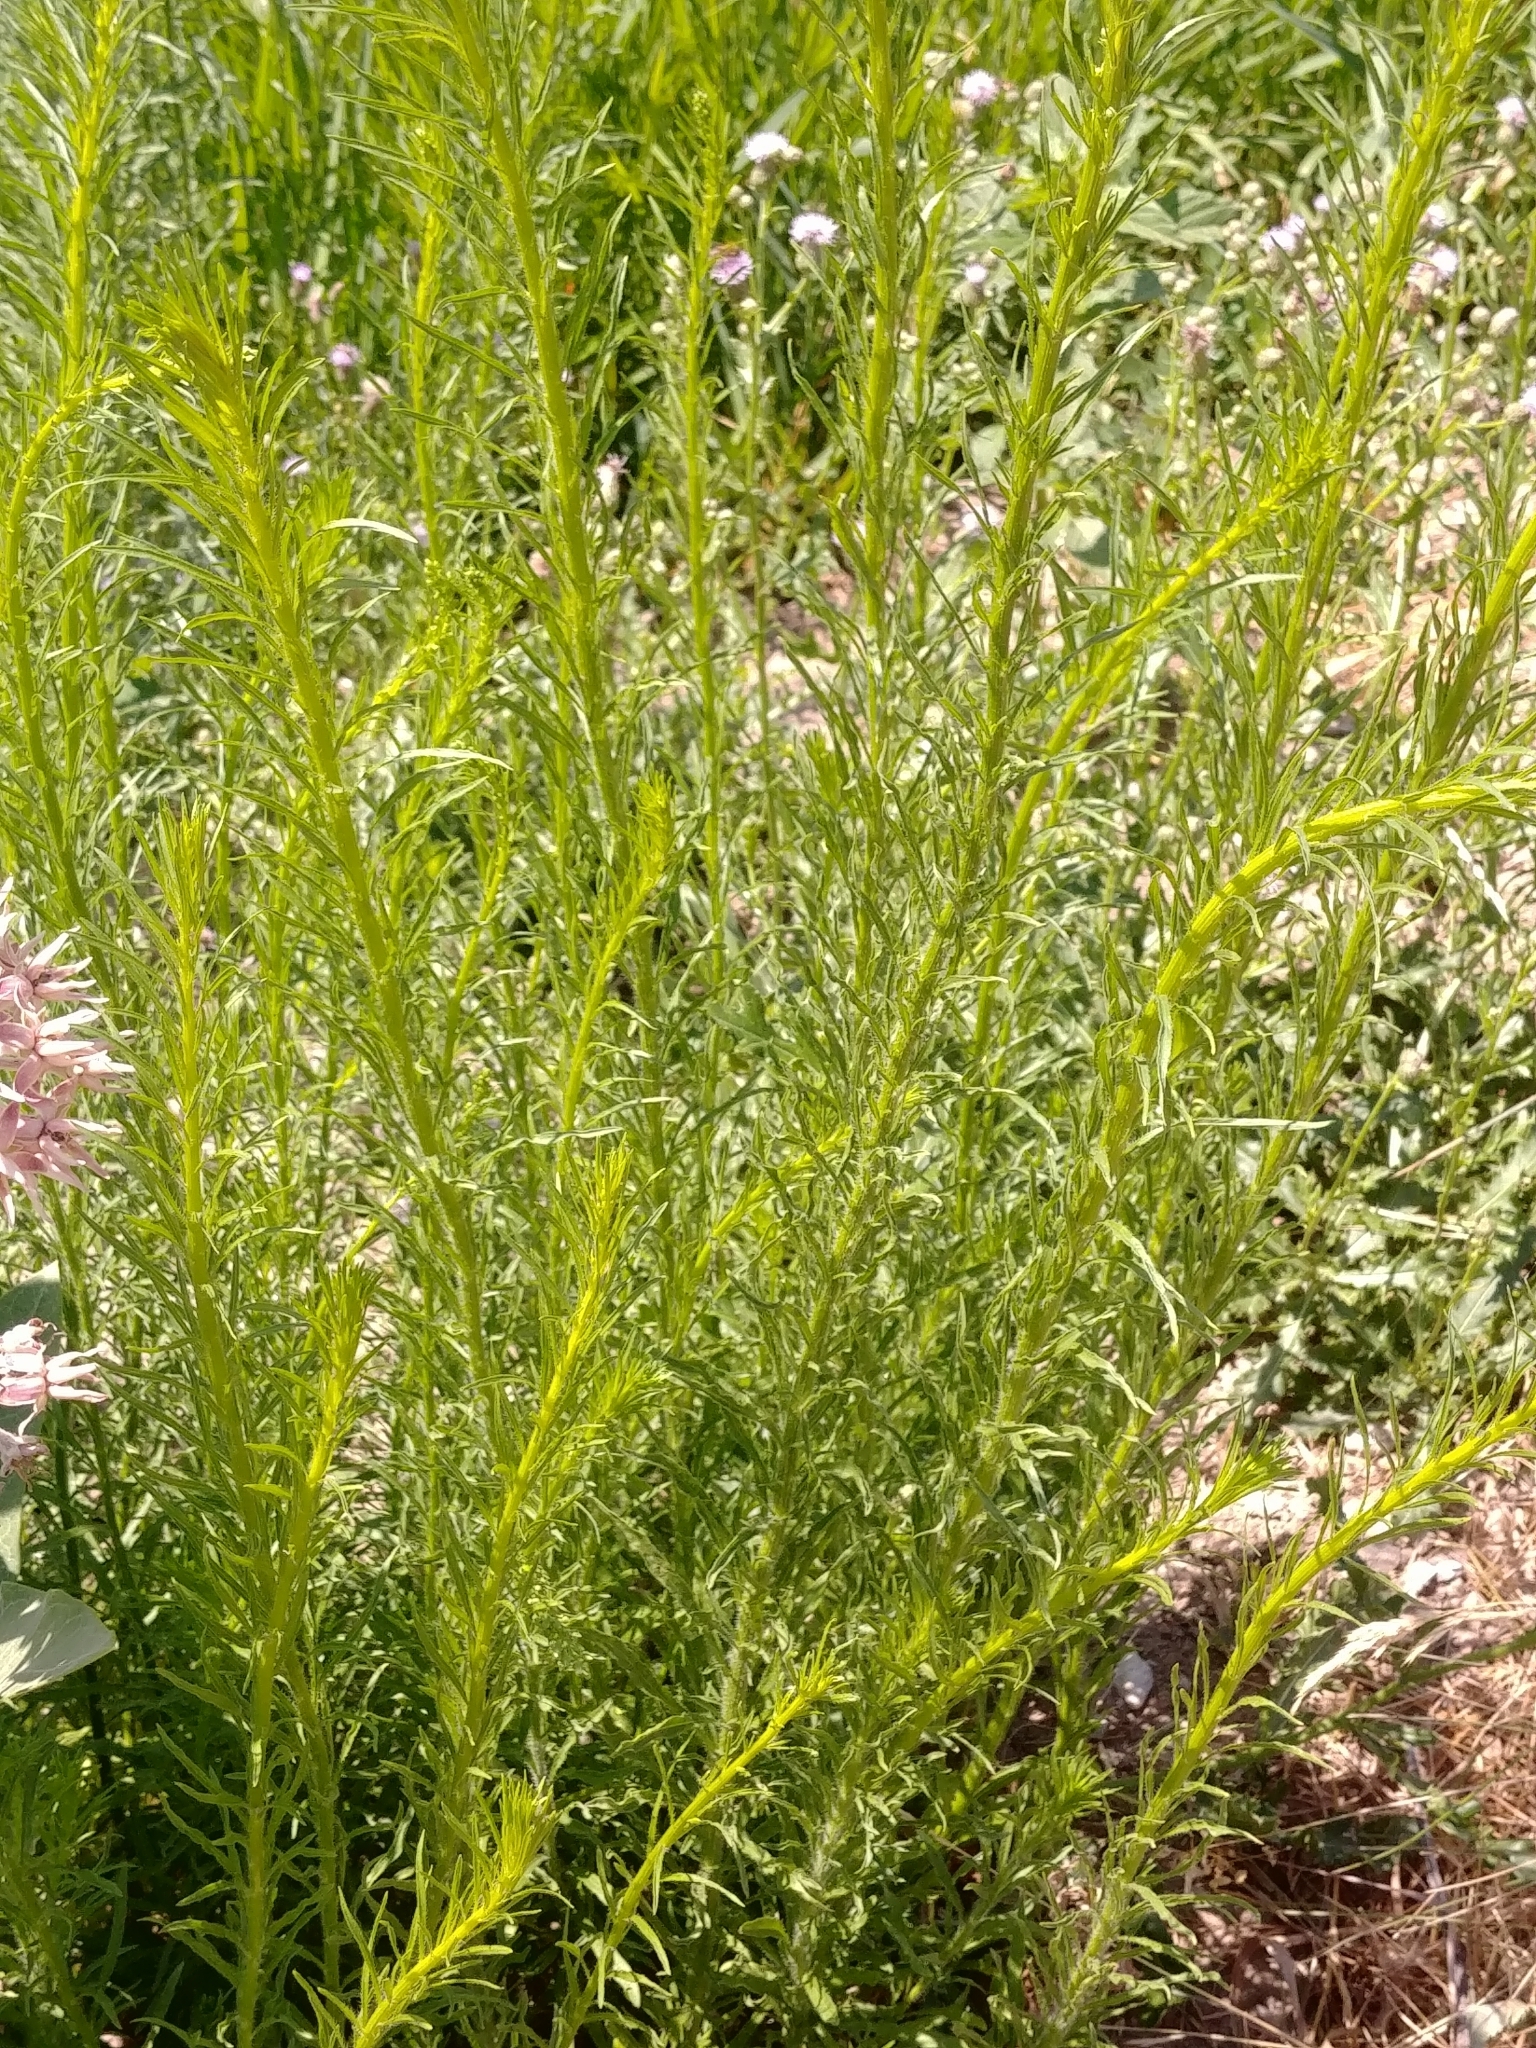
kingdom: Plantae
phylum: Tracheophyta
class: Magnoliopsida
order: Asterales
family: Asteraceae
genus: Erigeron
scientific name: Erigeron canadensis
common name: Canadian fleabane
